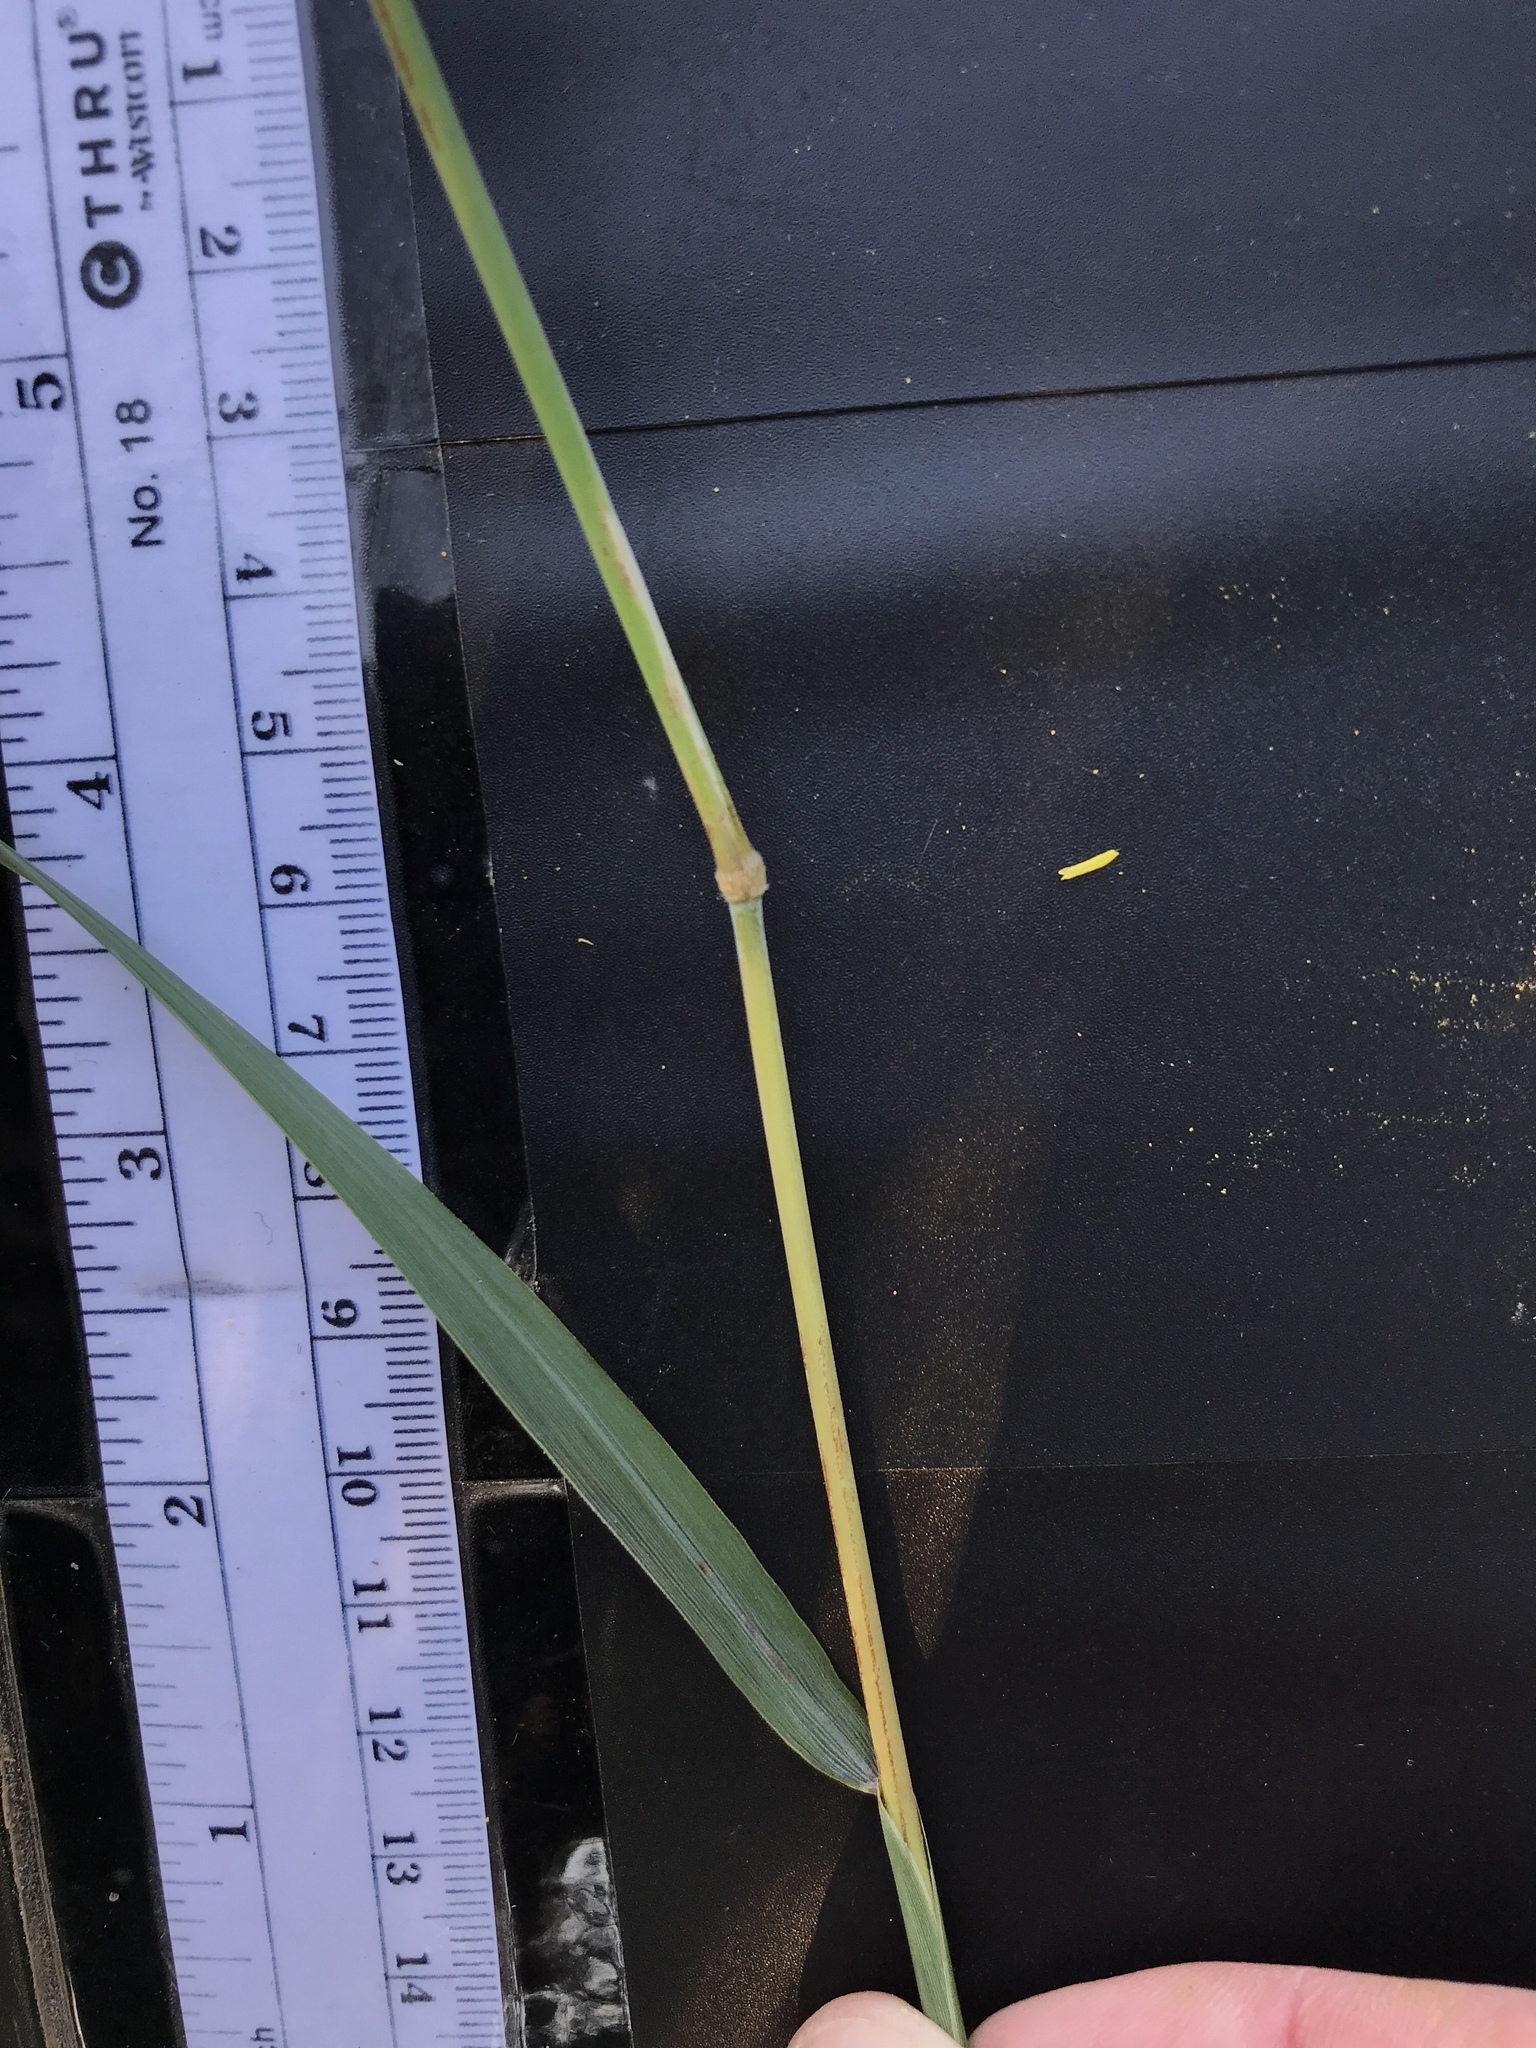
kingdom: Plantae
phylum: Tracheophyta
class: Liliopsida
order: Poales
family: Poaceae
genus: Sorghastrum
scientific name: Sorghastrum nutans
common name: Indian grass
